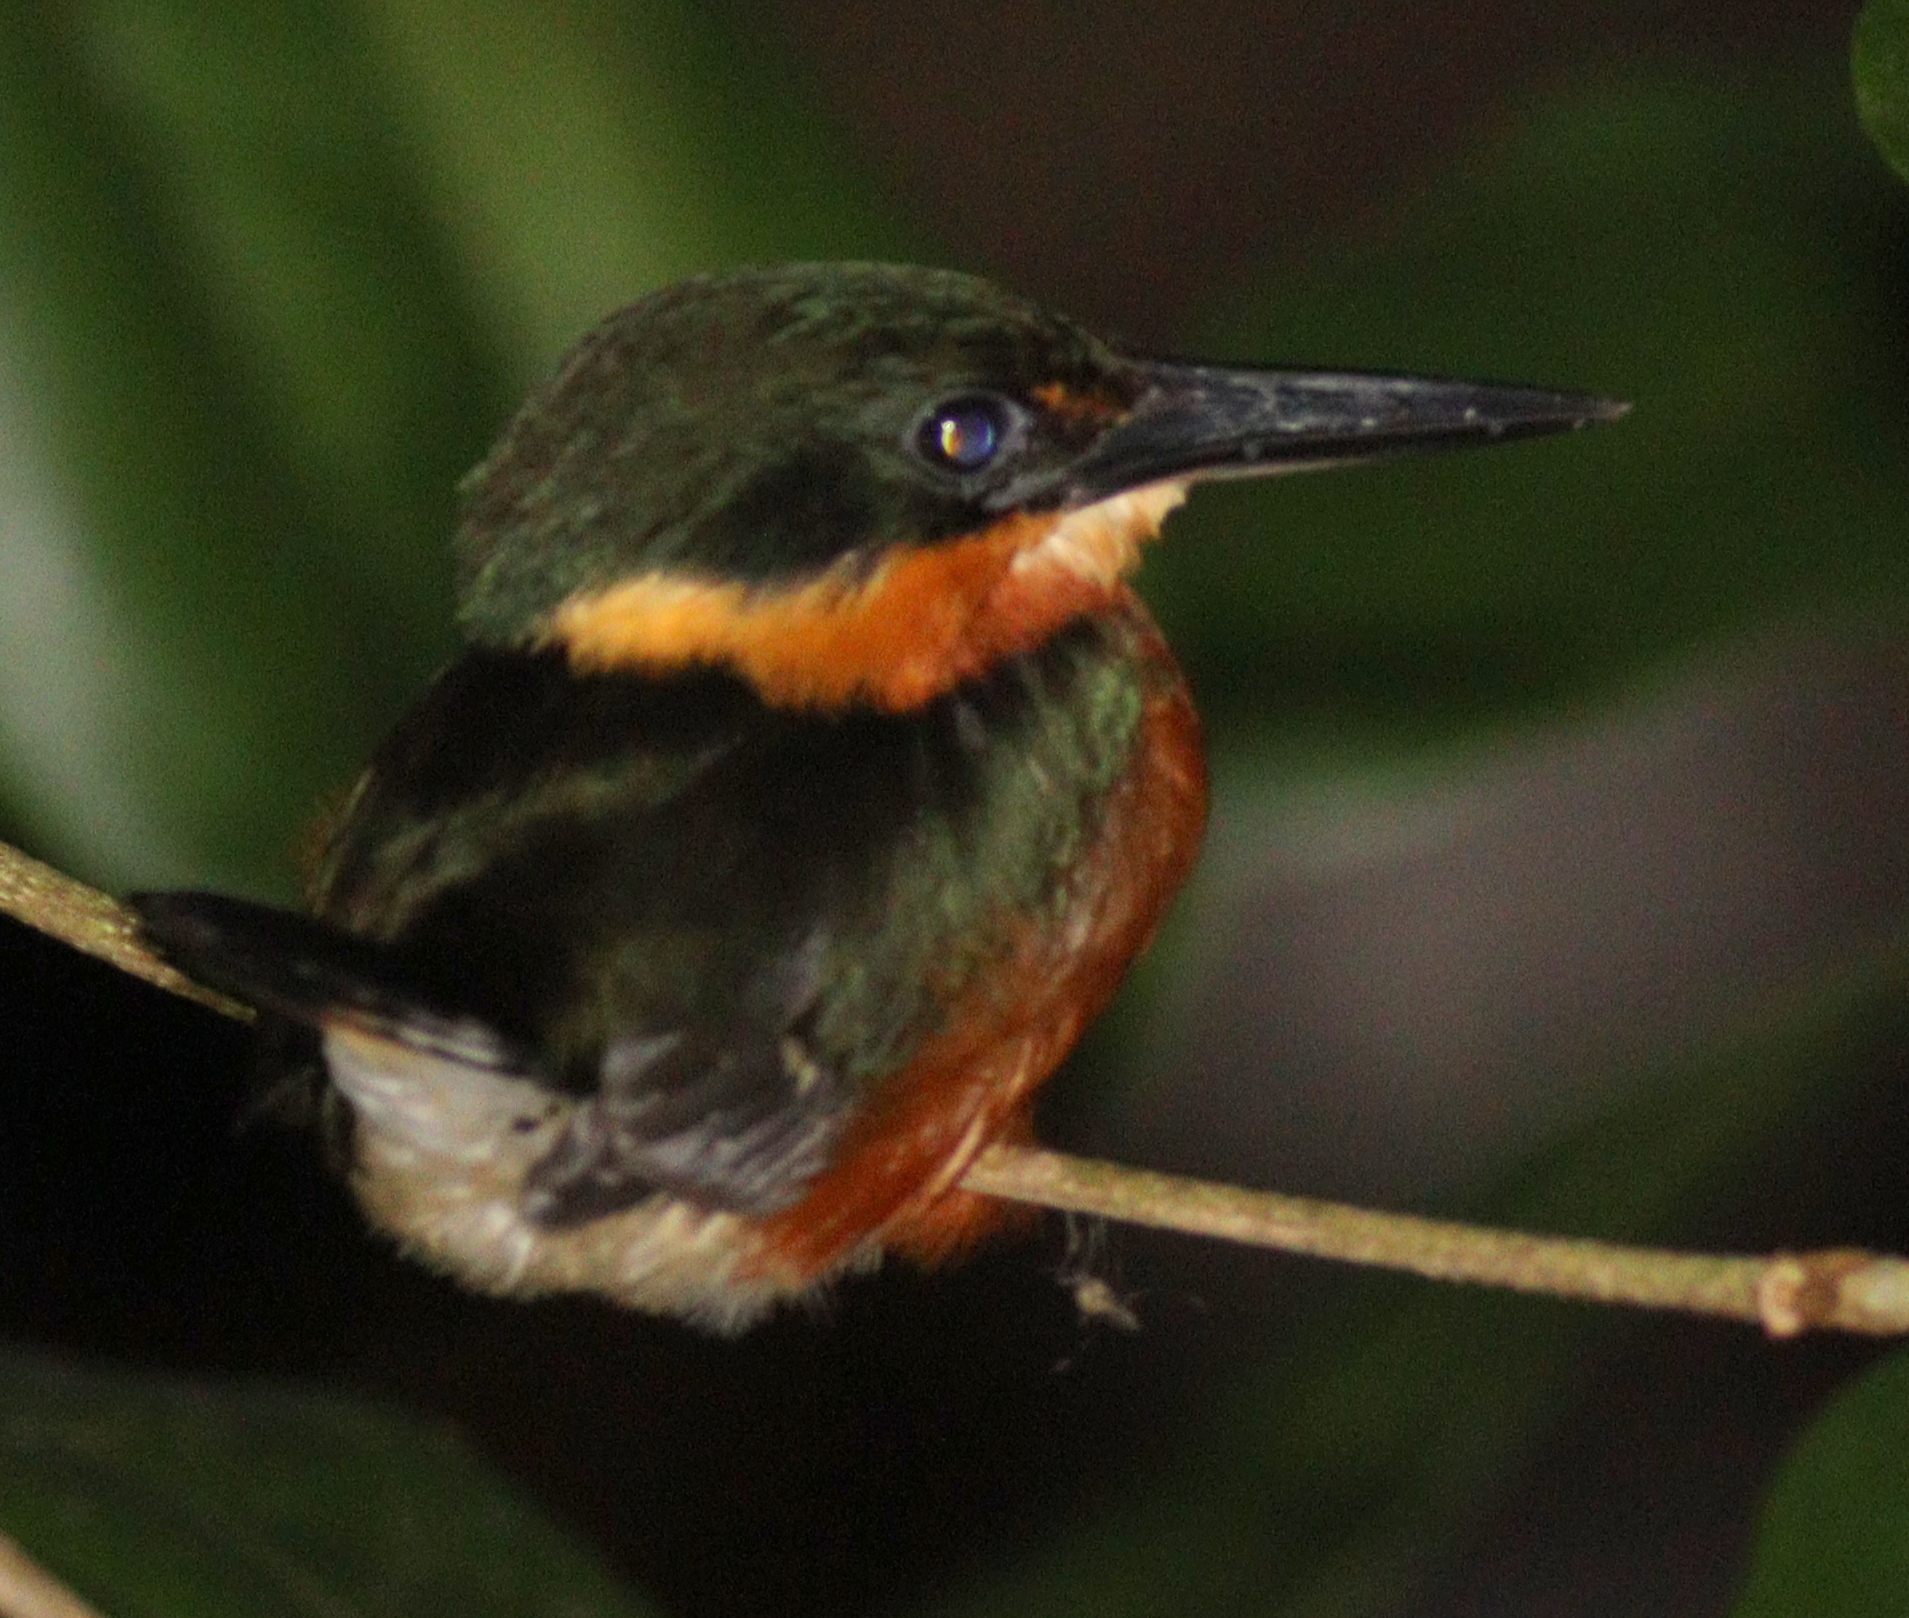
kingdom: Animalia
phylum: Chordata
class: Aves
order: Coraciiformes
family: Alcedinidae
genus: Chloroceryle
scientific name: Chloroceryle aenea
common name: American pygmy kingfisher
